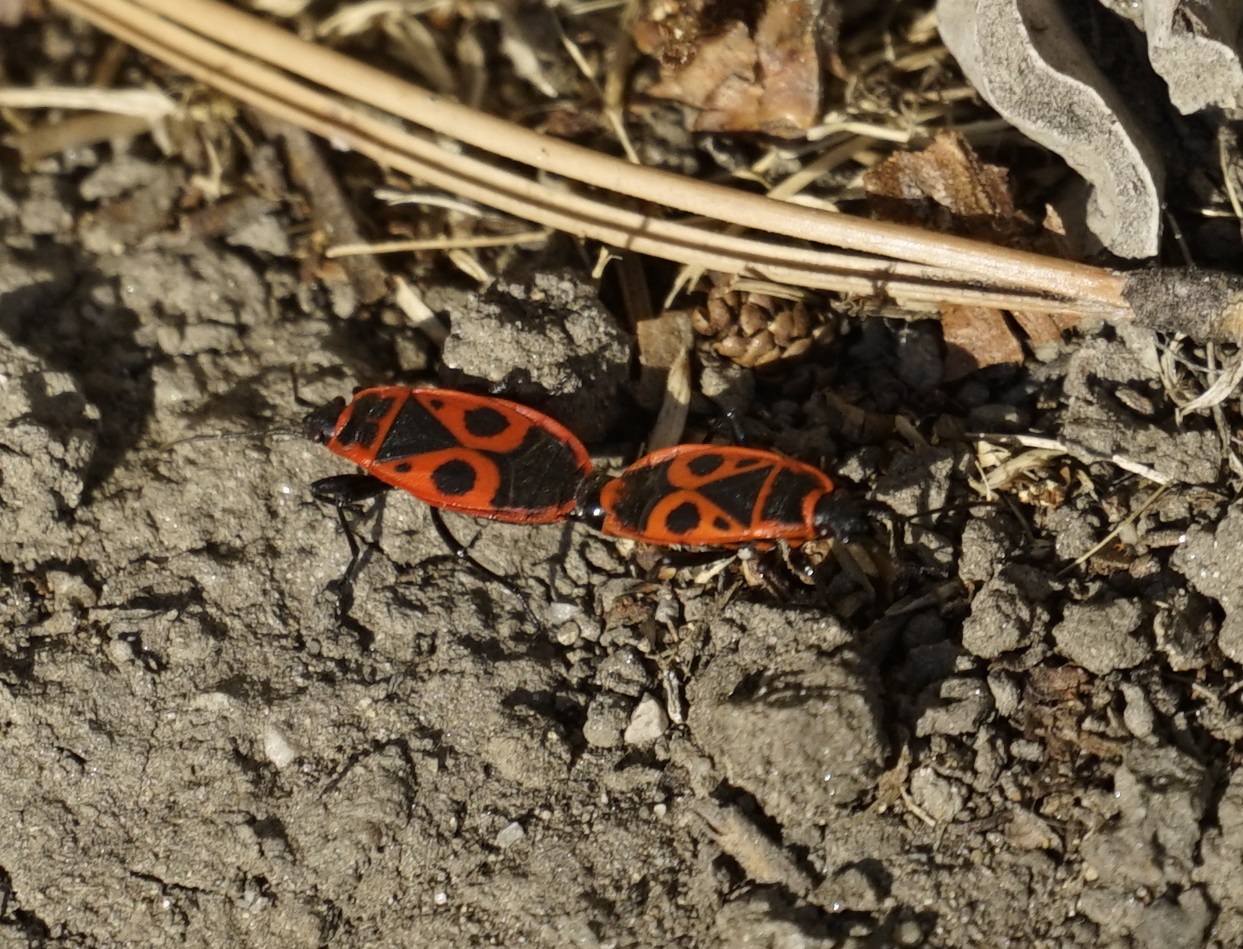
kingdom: Animalia
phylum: Arthropoda
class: Insecta
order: Hemiptera
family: Pyrrhocoridae
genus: Pyrrhocoris
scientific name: Pyrrhocoris apterus
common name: Firebug
